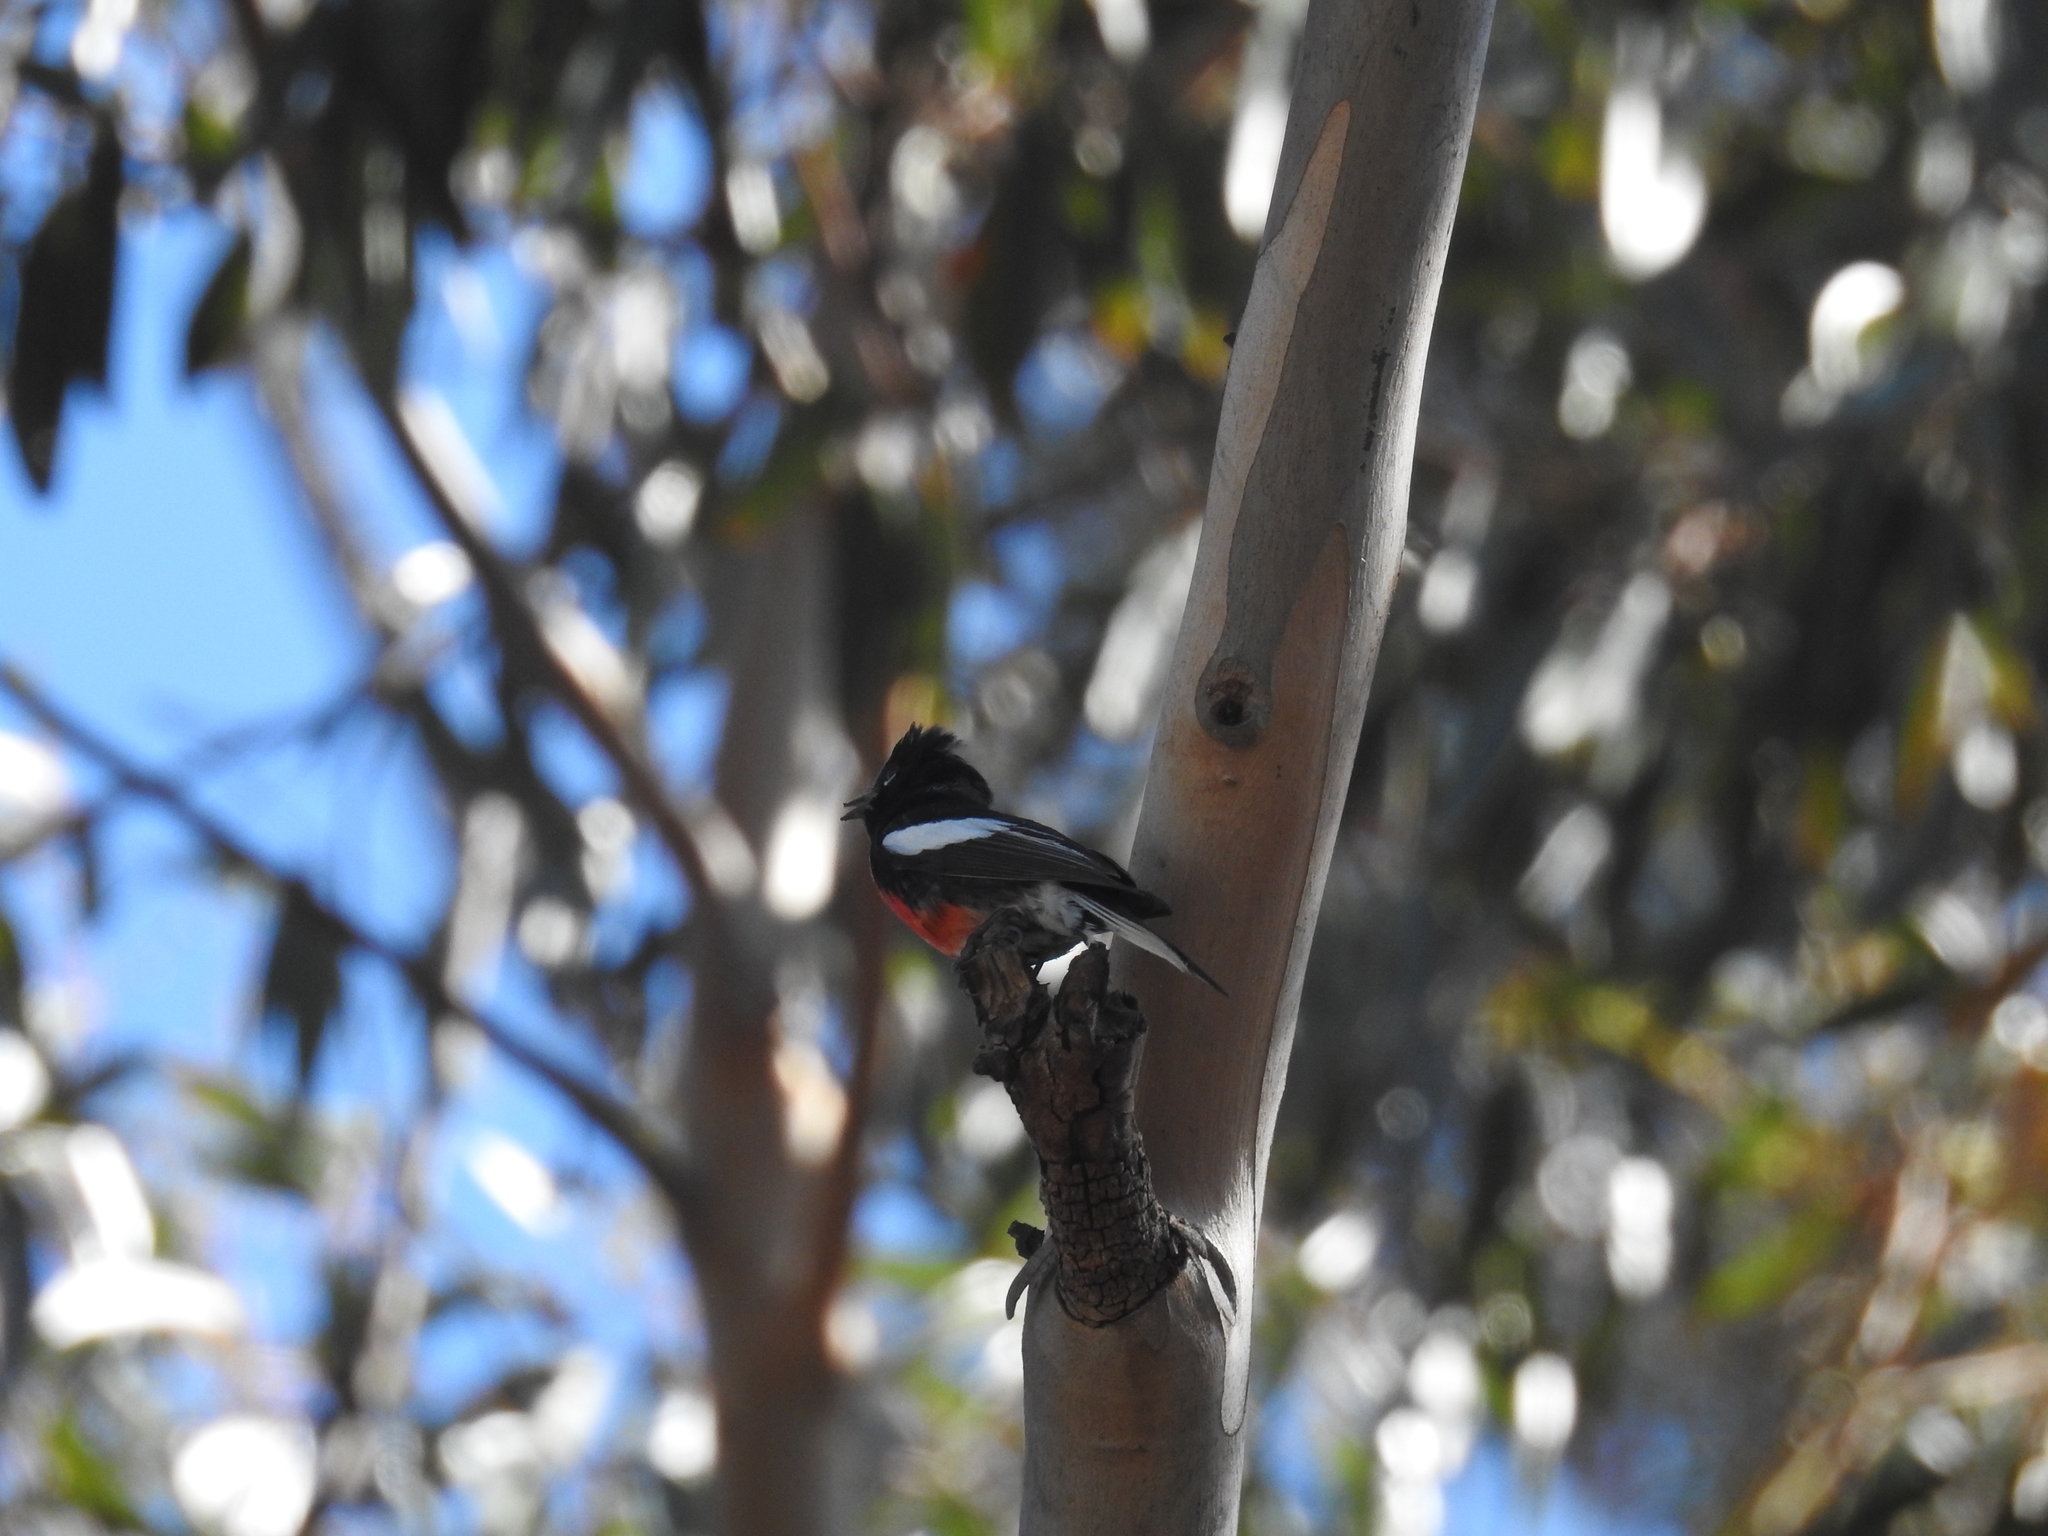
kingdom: Animalia
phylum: Chordata
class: Aves
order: Passeriformes
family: Parulidae
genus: Myioborus
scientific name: Myioborus pictus
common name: Painted whitestart
